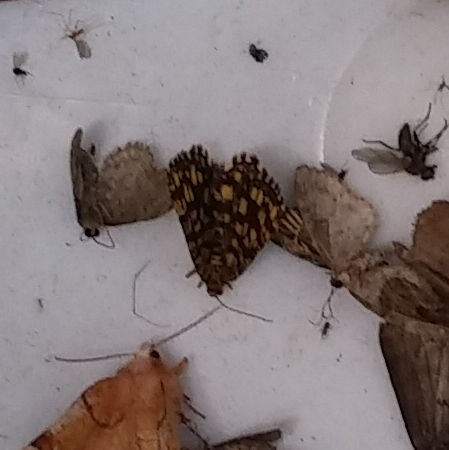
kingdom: Animalia
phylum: Arthropoda
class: Insecta
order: Lepidoptera
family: Geometridae
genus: Chiasmia
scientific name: Chiasmia clathrata
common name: Latticed heath
